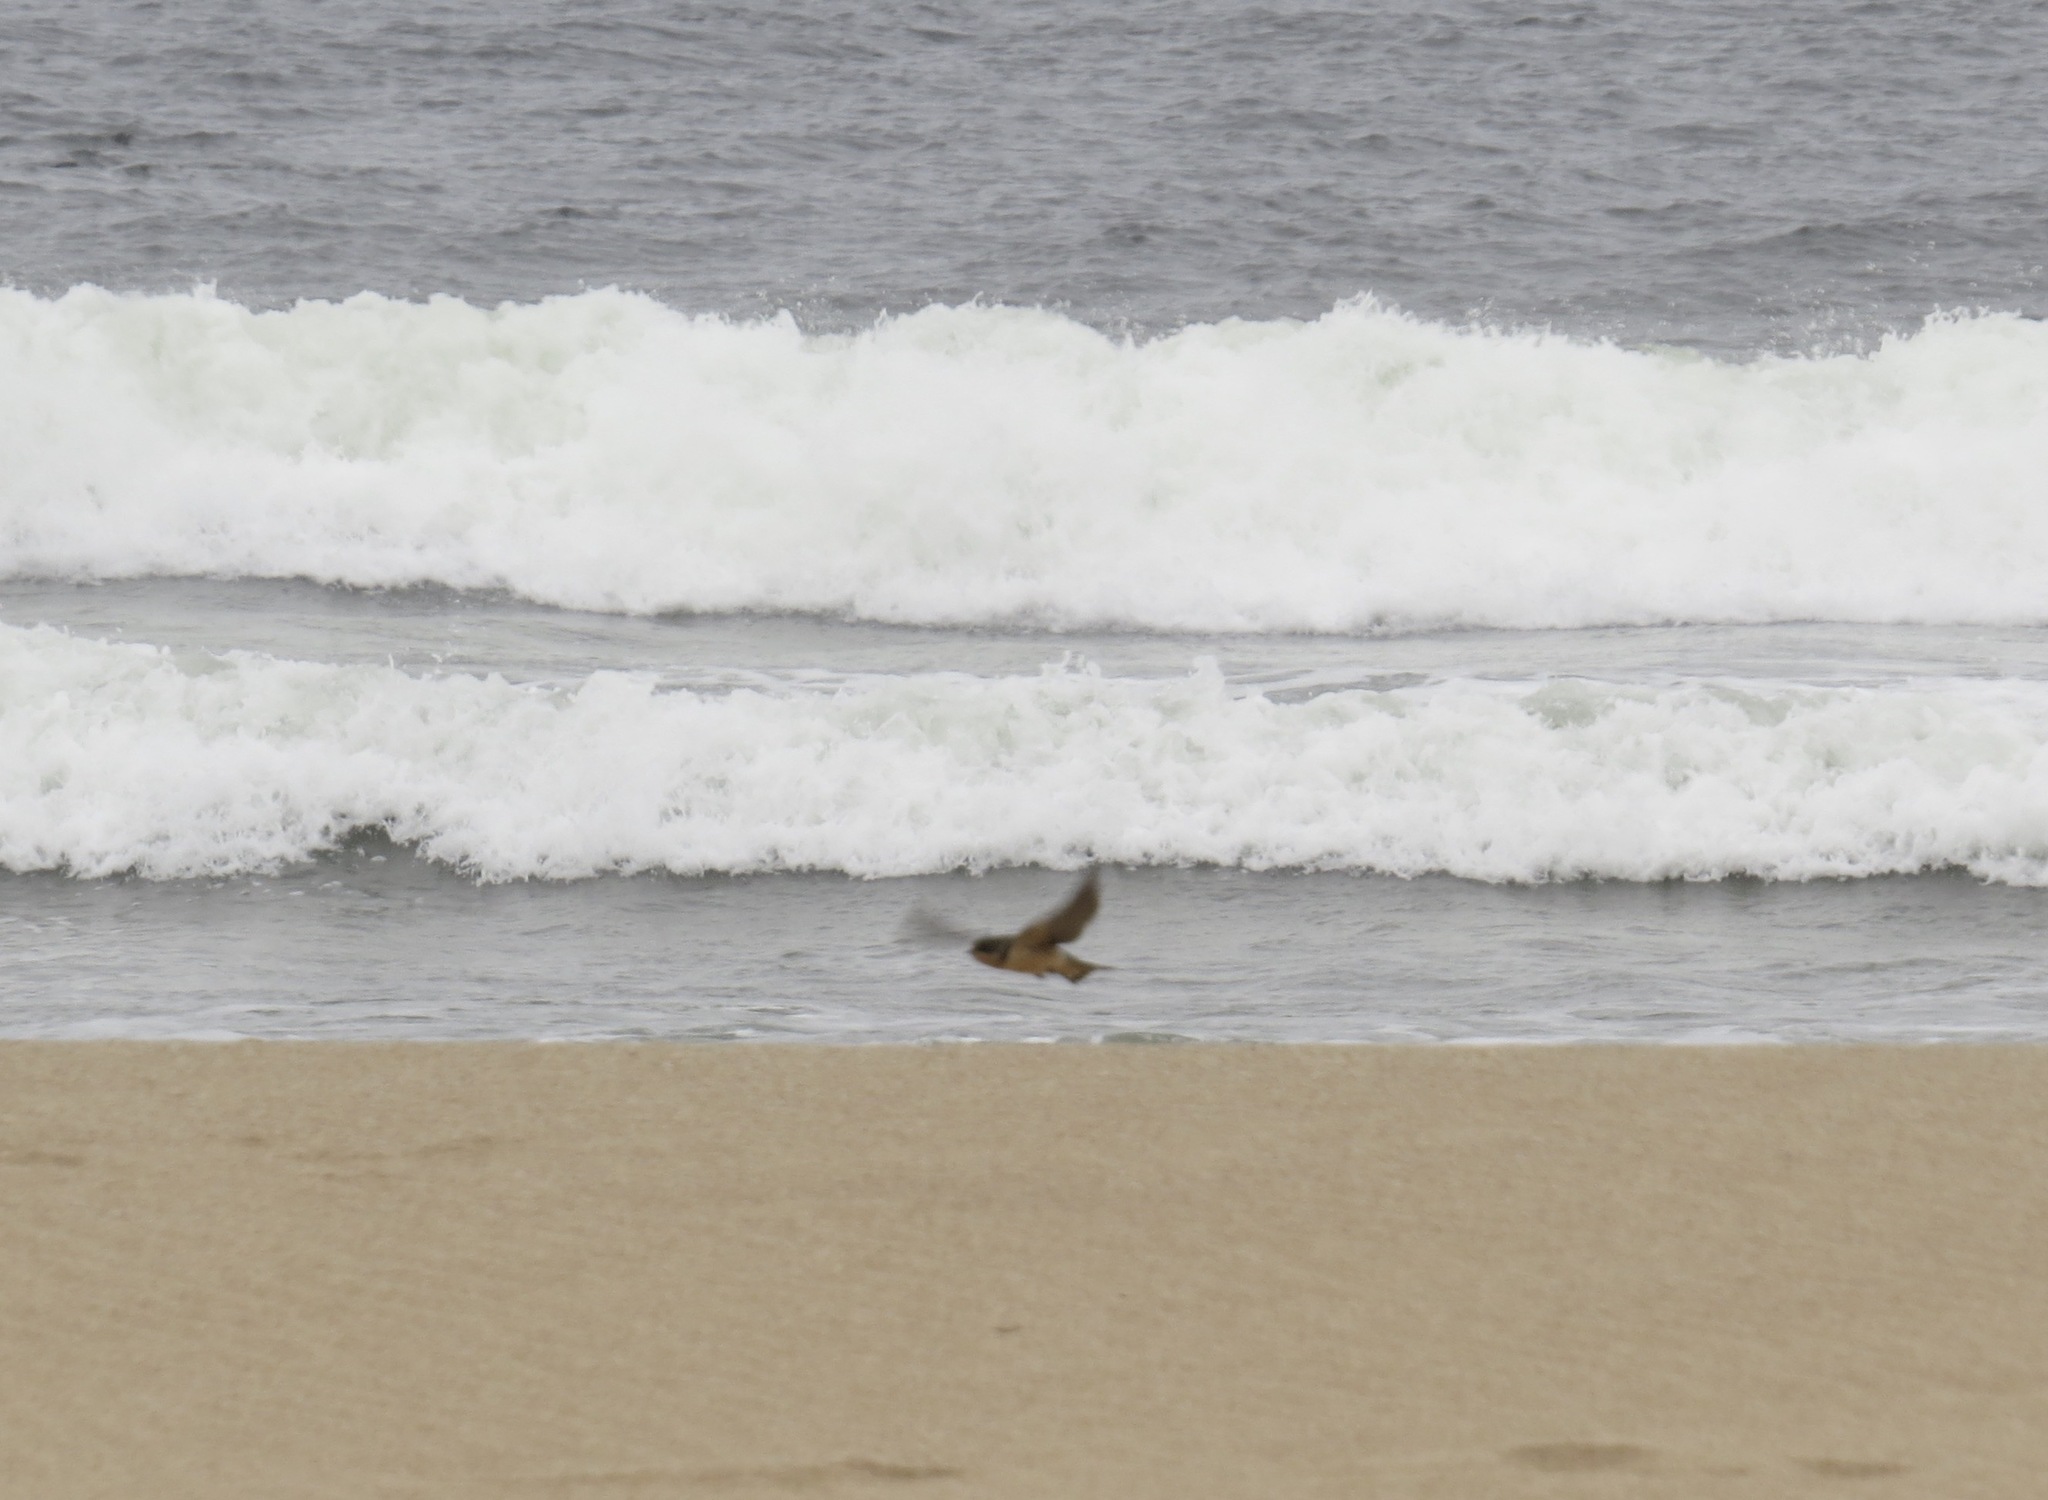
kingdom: Animalia
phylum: Chordata
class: Aves
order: Passeriformes
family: Hirundinidae
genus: Hirundo
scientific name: Hirundo rustica
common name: Barn swallow
